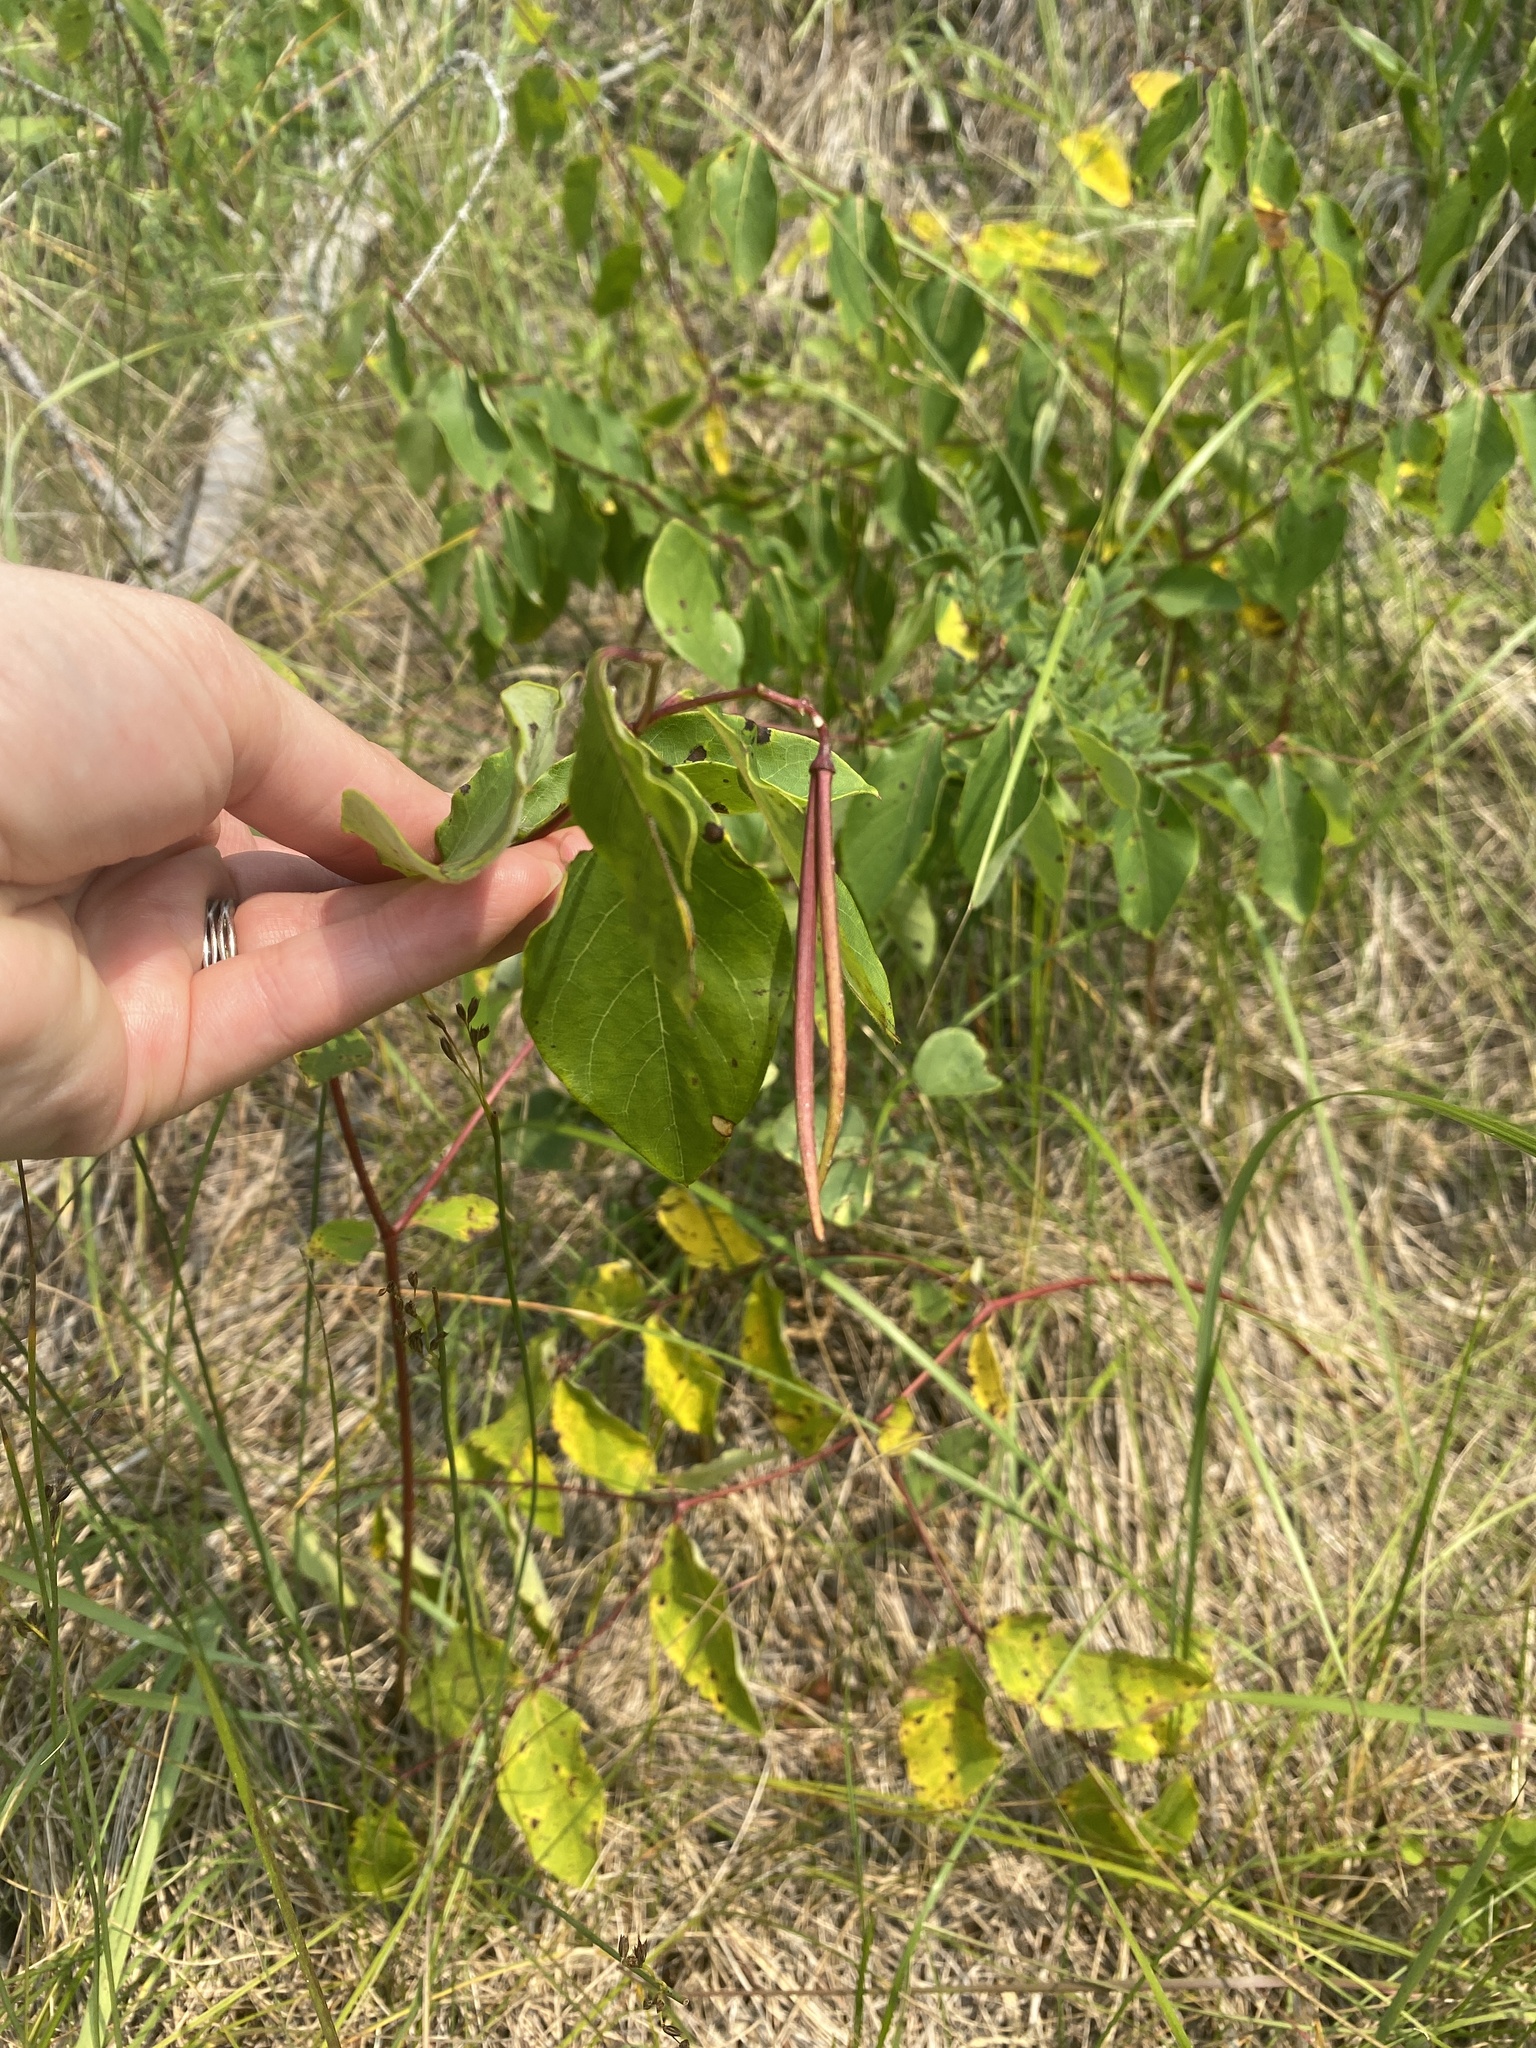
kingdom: Plantae
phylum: Tracheophyta
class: Magnoliopsida
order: Gentianales
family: Apocynaceae
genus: Apocynum
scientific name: Apocynum androsaemifolium
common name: Spreading dogbane
